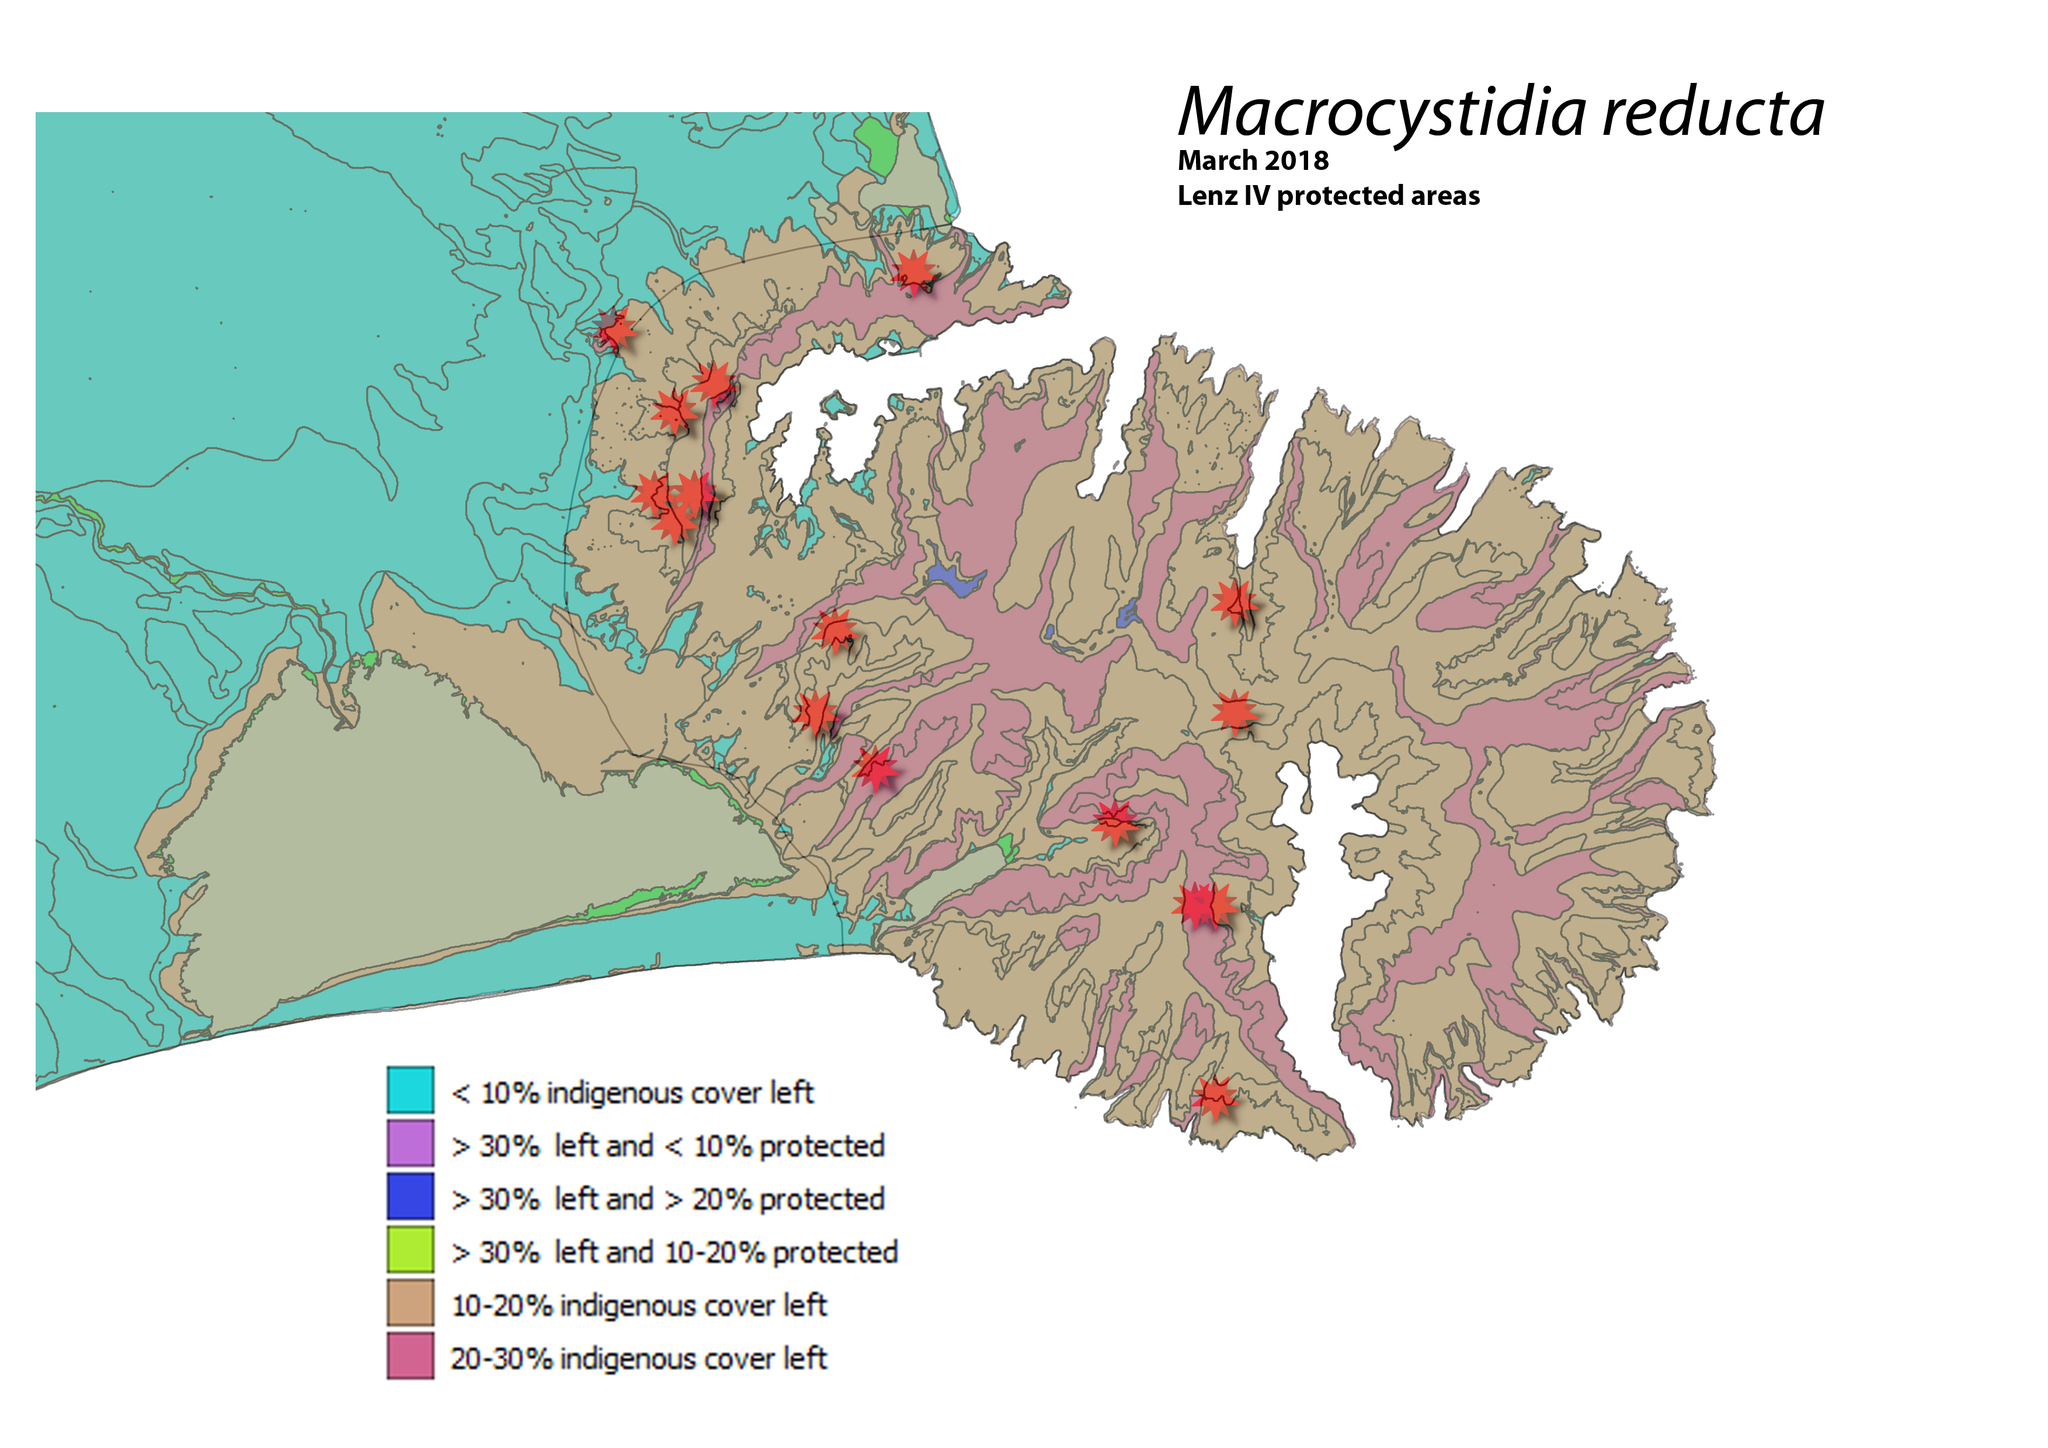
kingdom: Fungi
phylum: Basidiomycota
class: Agaricomycetes
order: Agaricales
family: Macrocystidiaceae
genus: Macrocystidia
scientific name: Macrocystidia reducta
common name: The fishy pouch
